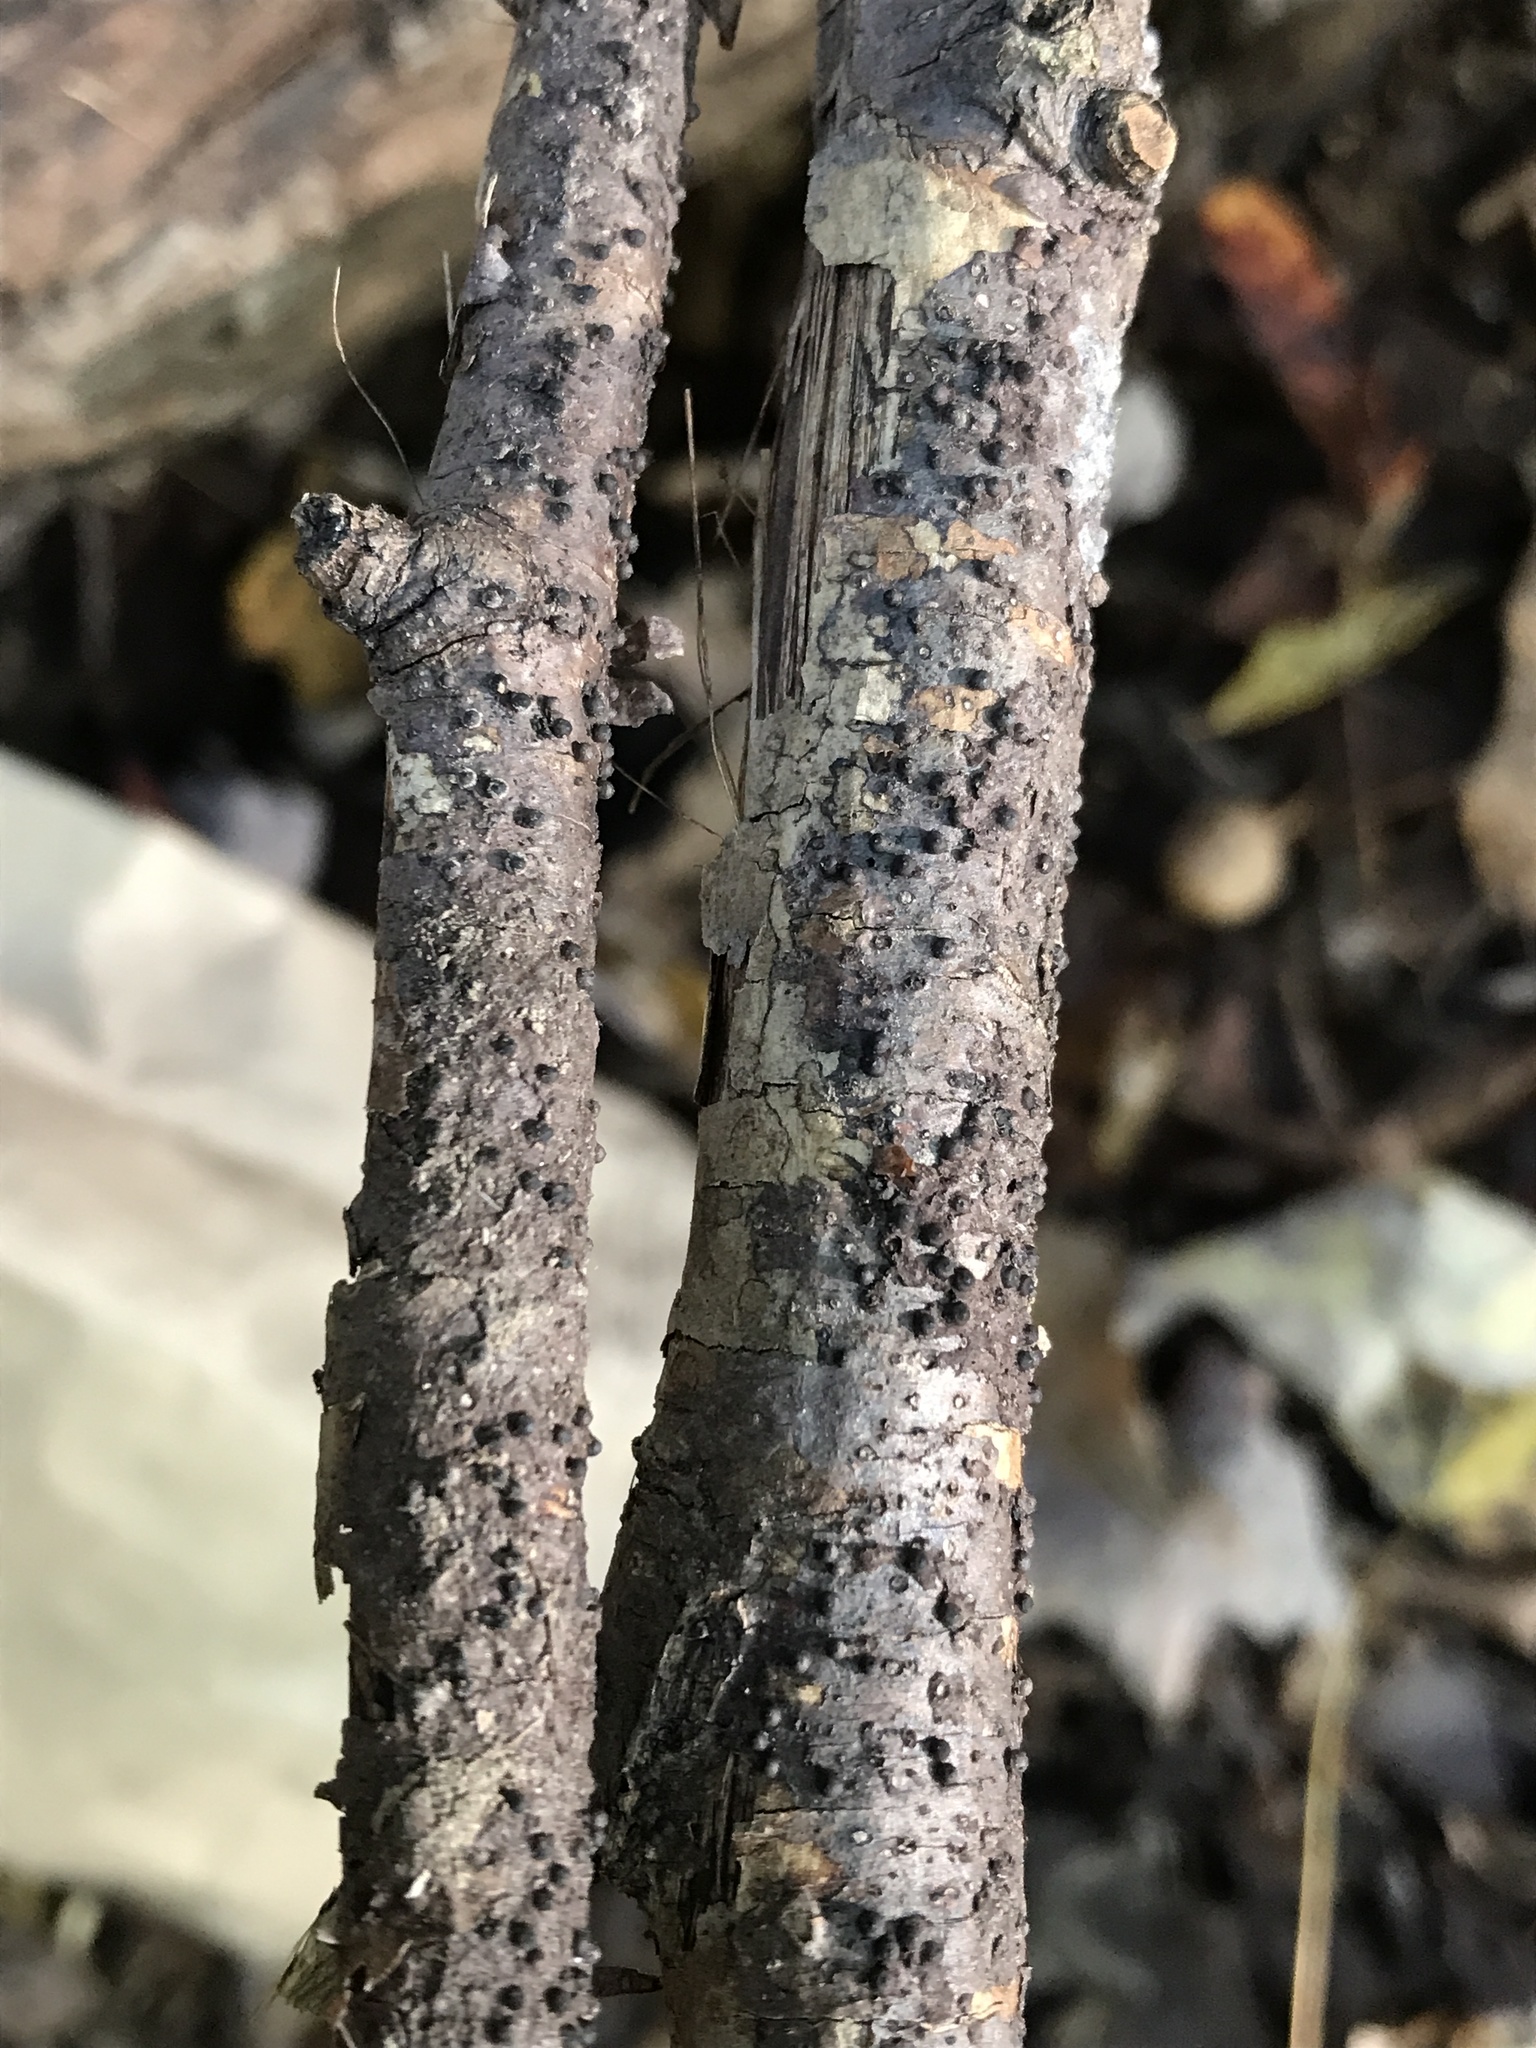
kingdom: Fungi
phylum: Ascomycota
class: Sordariomycetes
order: Xylariales
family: Xylariaceae
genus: Rosellinia
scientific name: Rosellinia corticium
